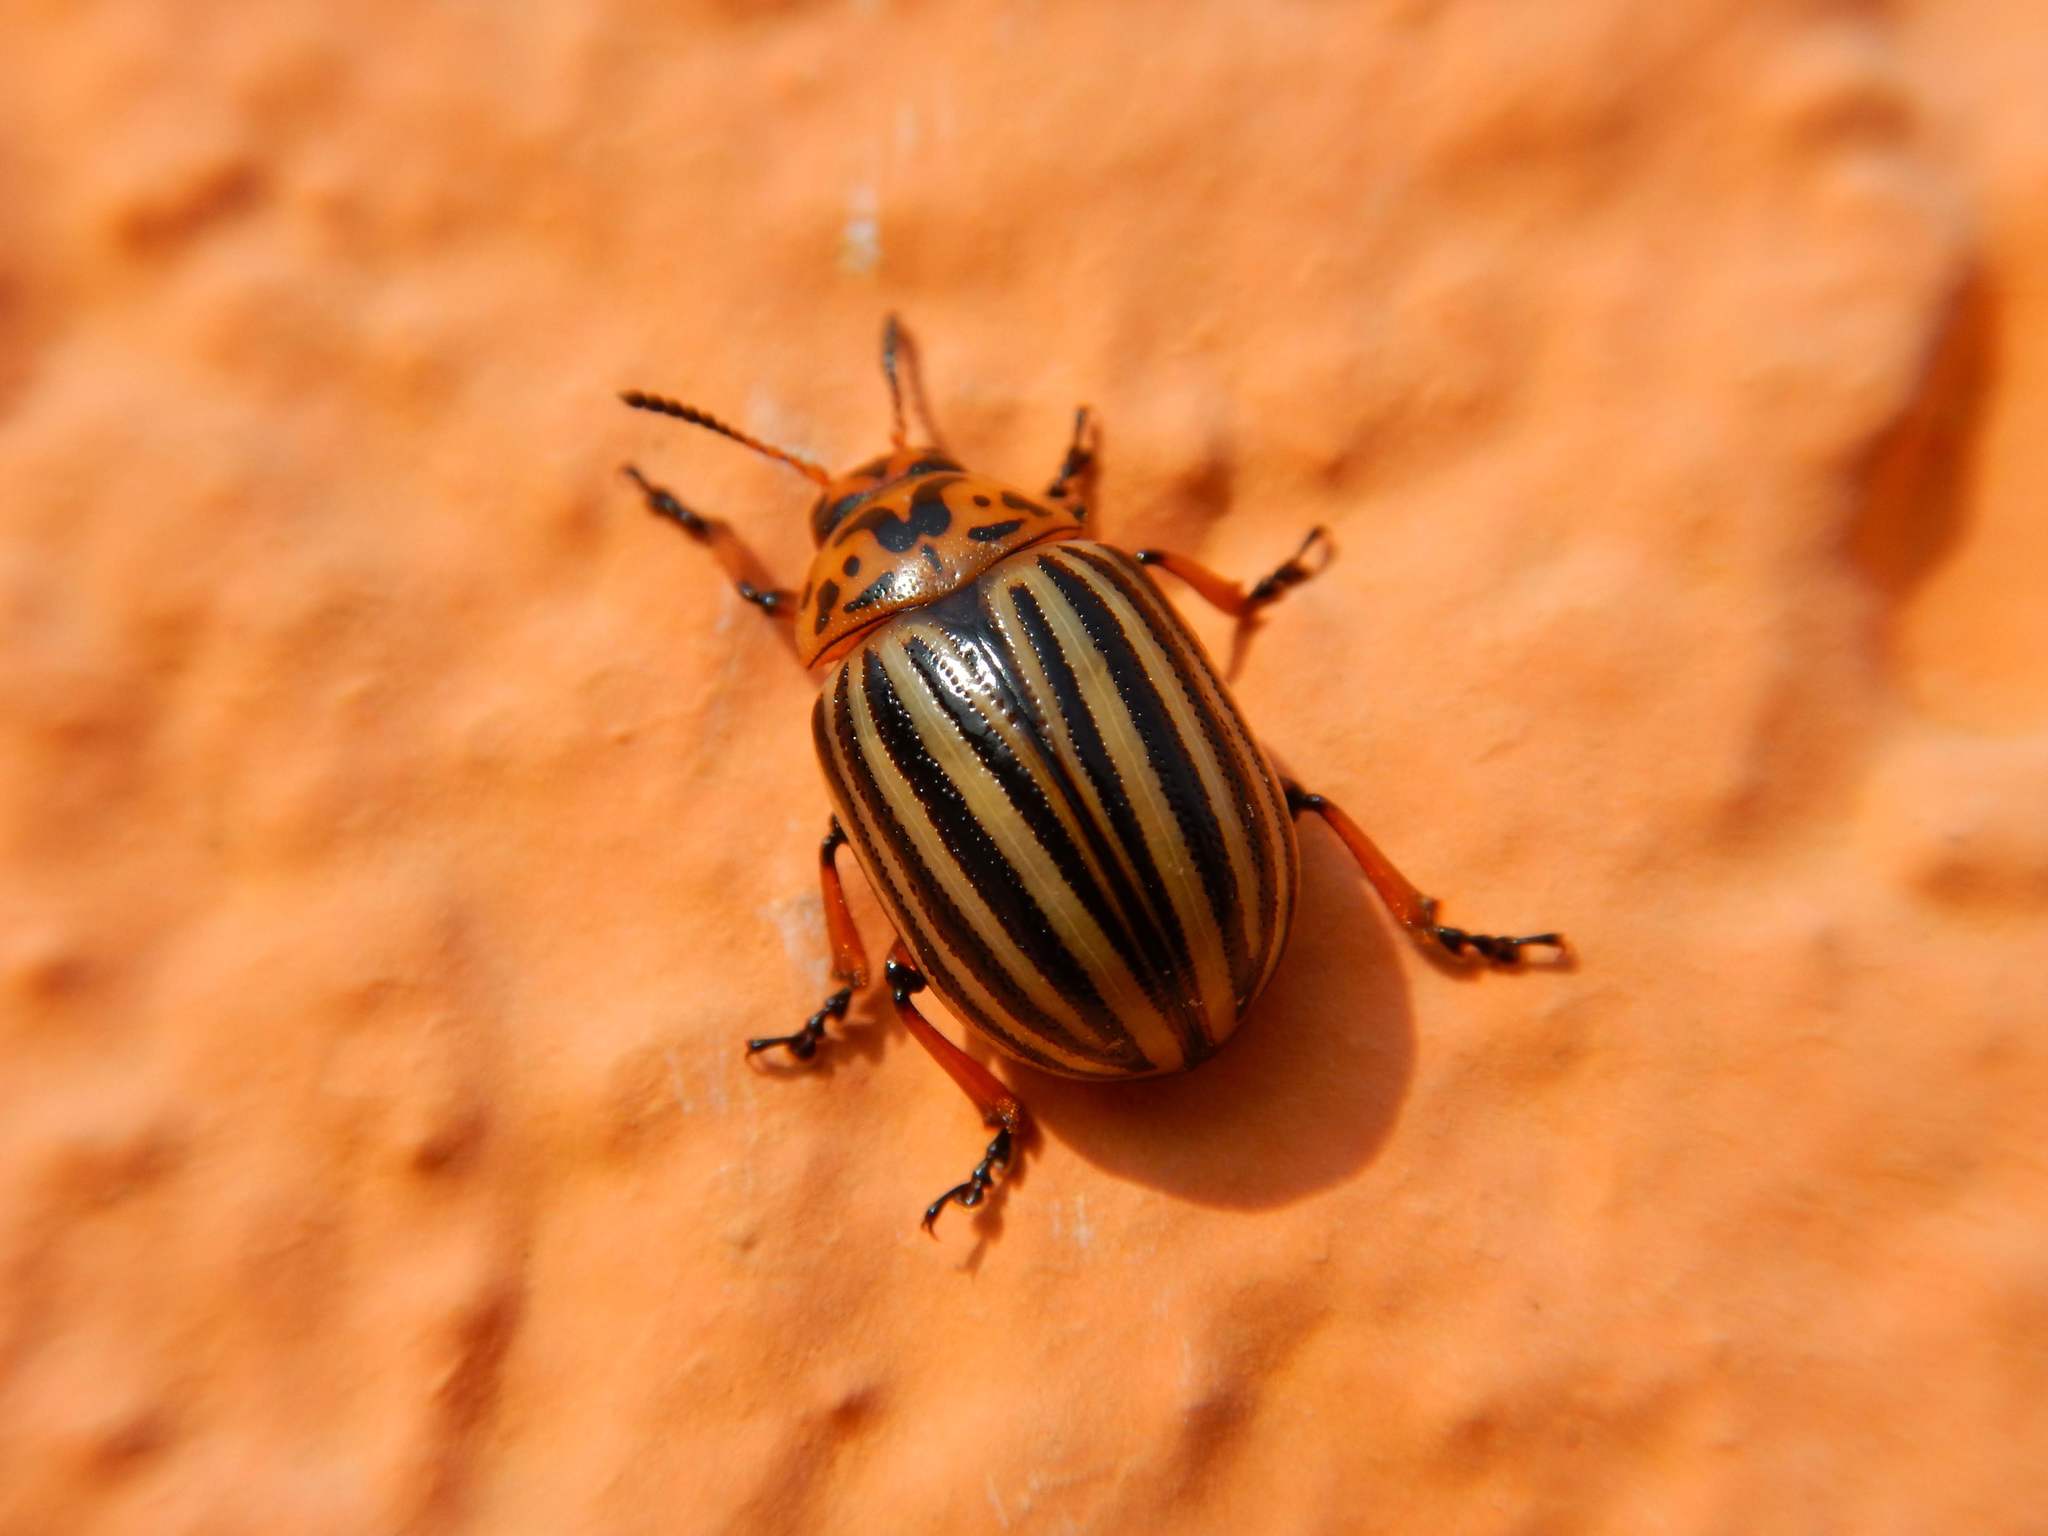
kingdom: Animalia
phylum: Arthropoda
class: Insecta
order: Coleoptera
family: Chrysomelidae
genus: Leptinotarsa
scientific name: Leptinotarsa decemlineata
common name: Colorado potato beetle
